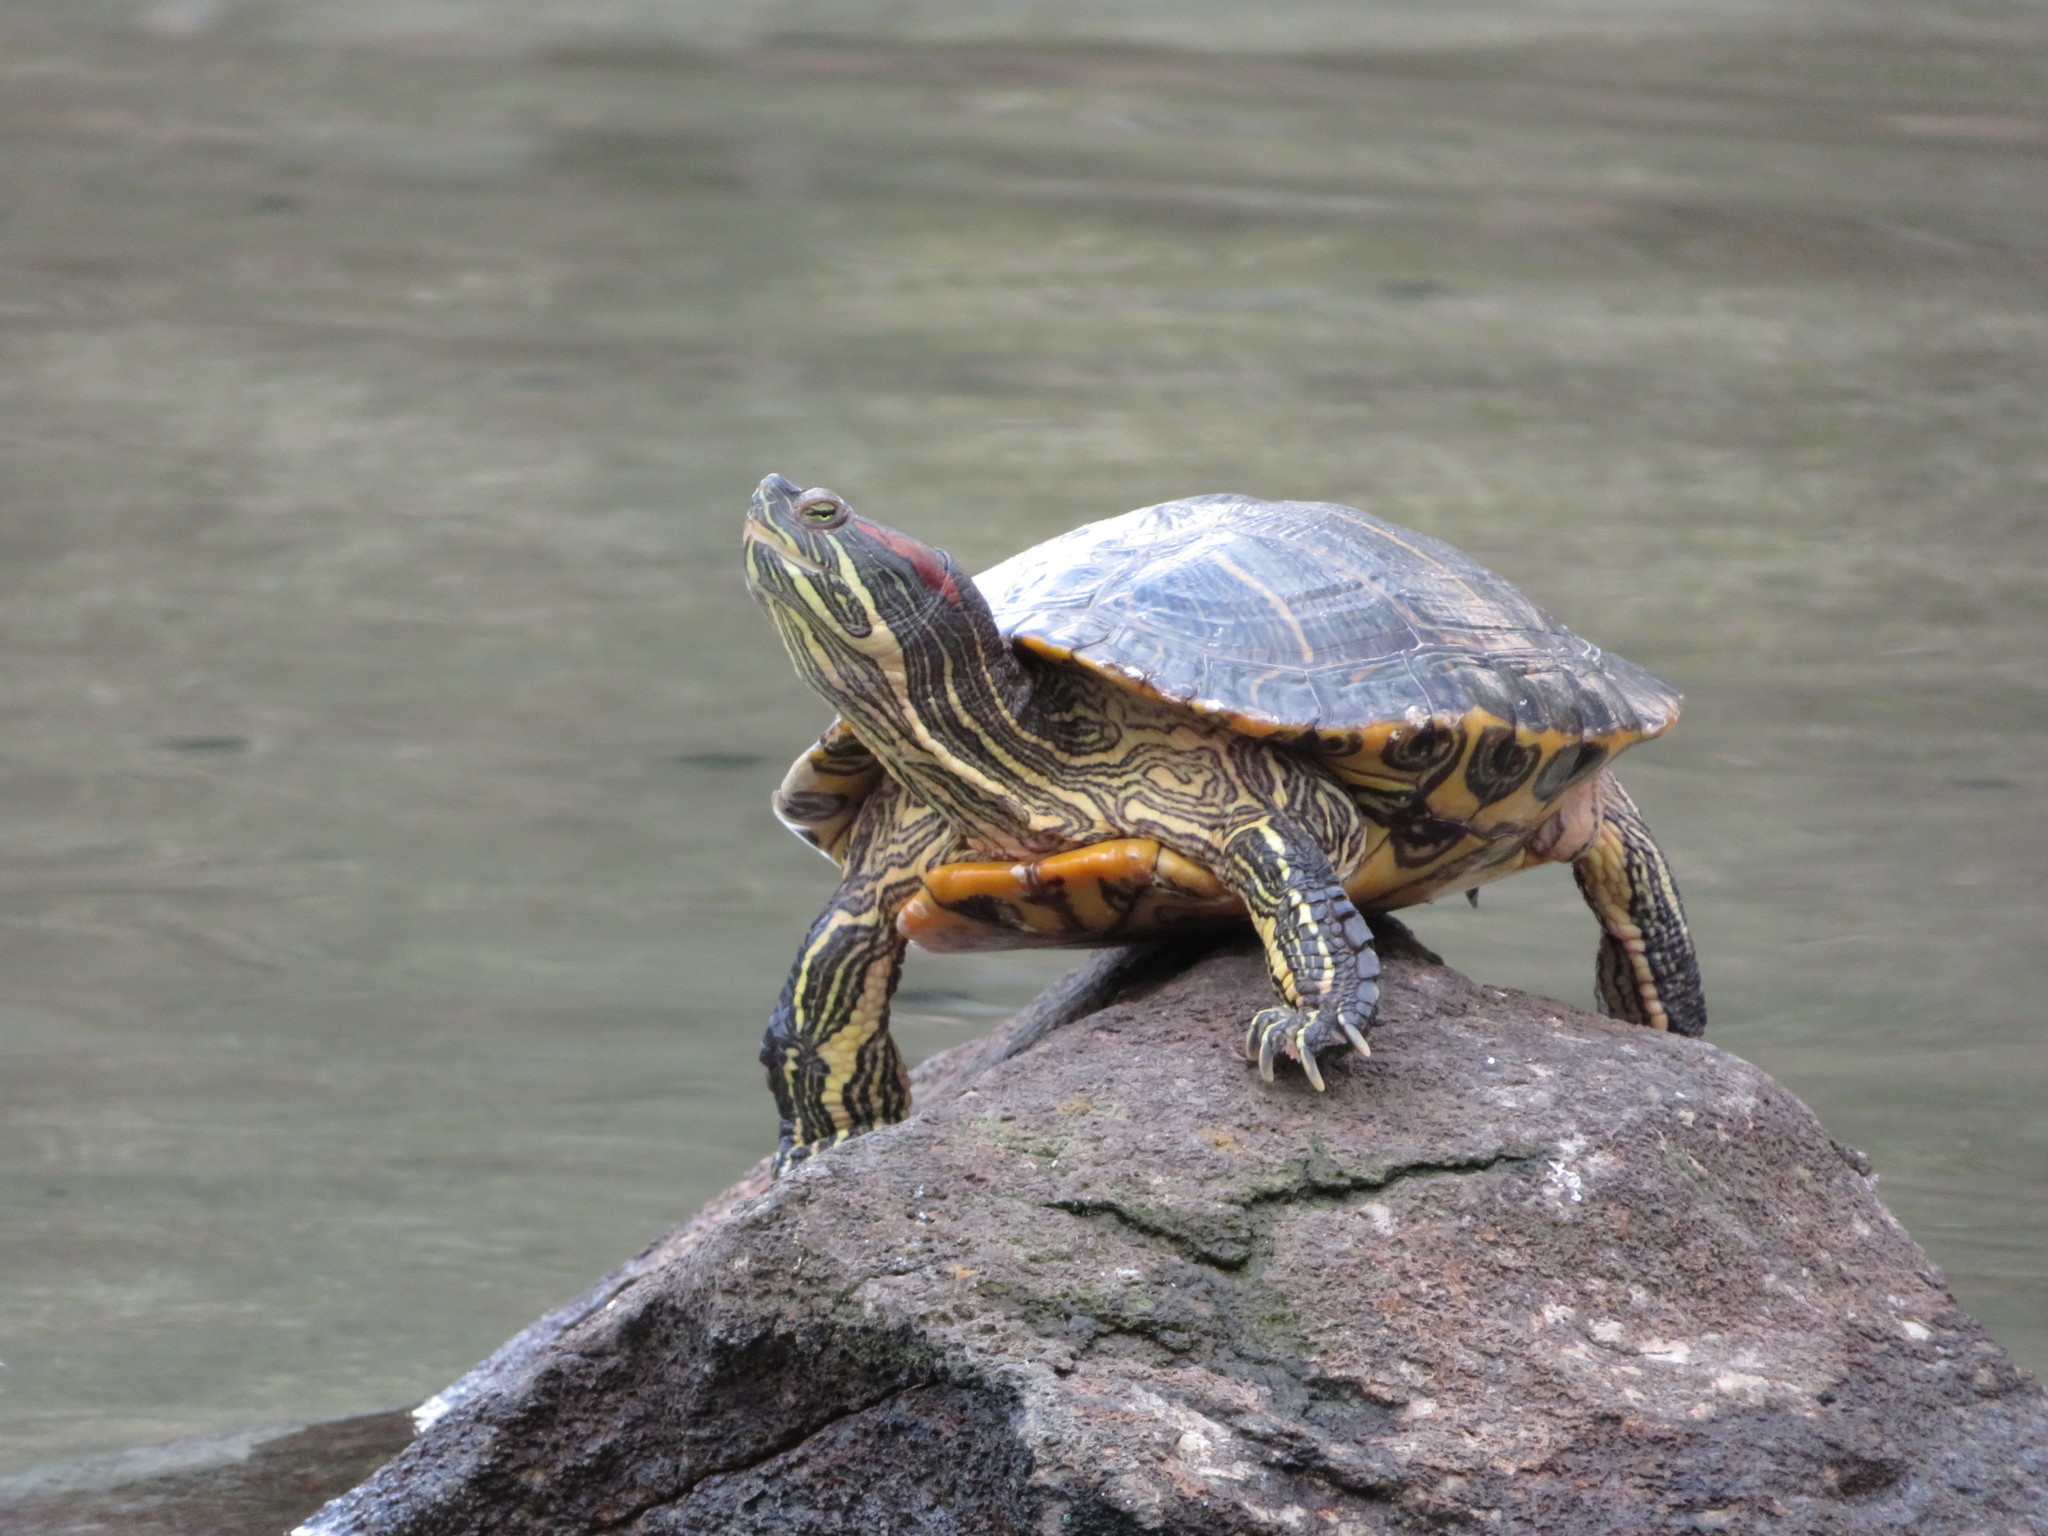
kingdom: Animalia
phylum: Chordata
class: Testudines
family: Emydidae
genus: Trachemys
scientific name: Trachemys scripta
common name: Slider
